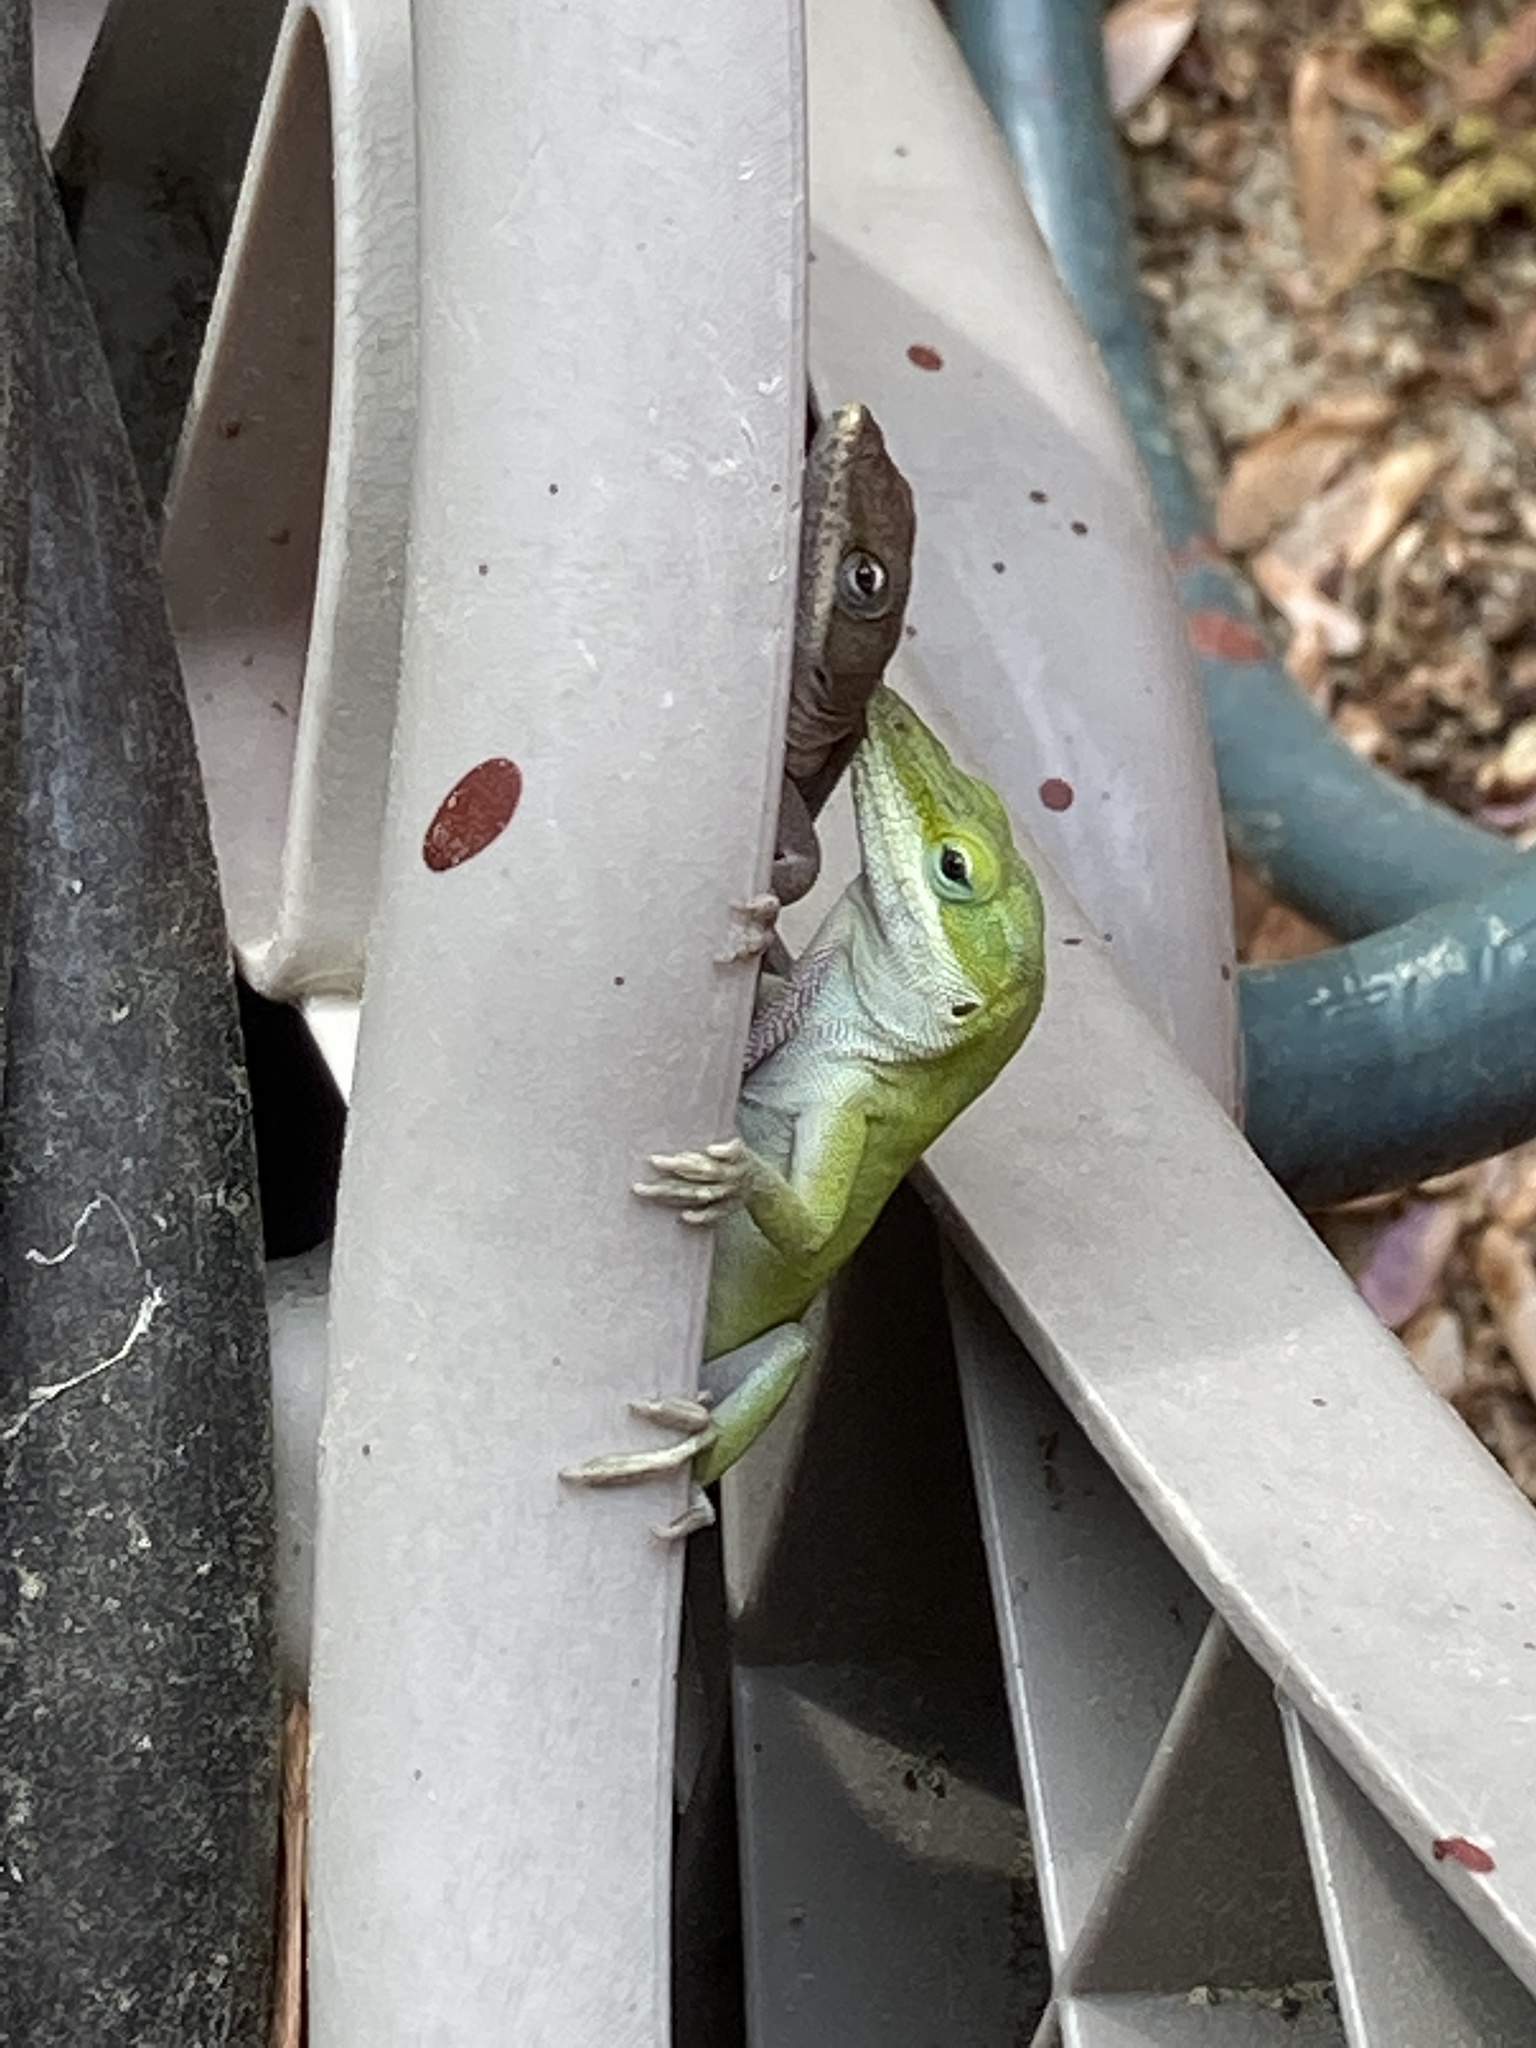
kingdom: Animalia
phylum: Chordata
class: Squamata
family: Dactyloidae
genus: Anolis
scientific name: Anolis carolinensis
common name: Green anole
